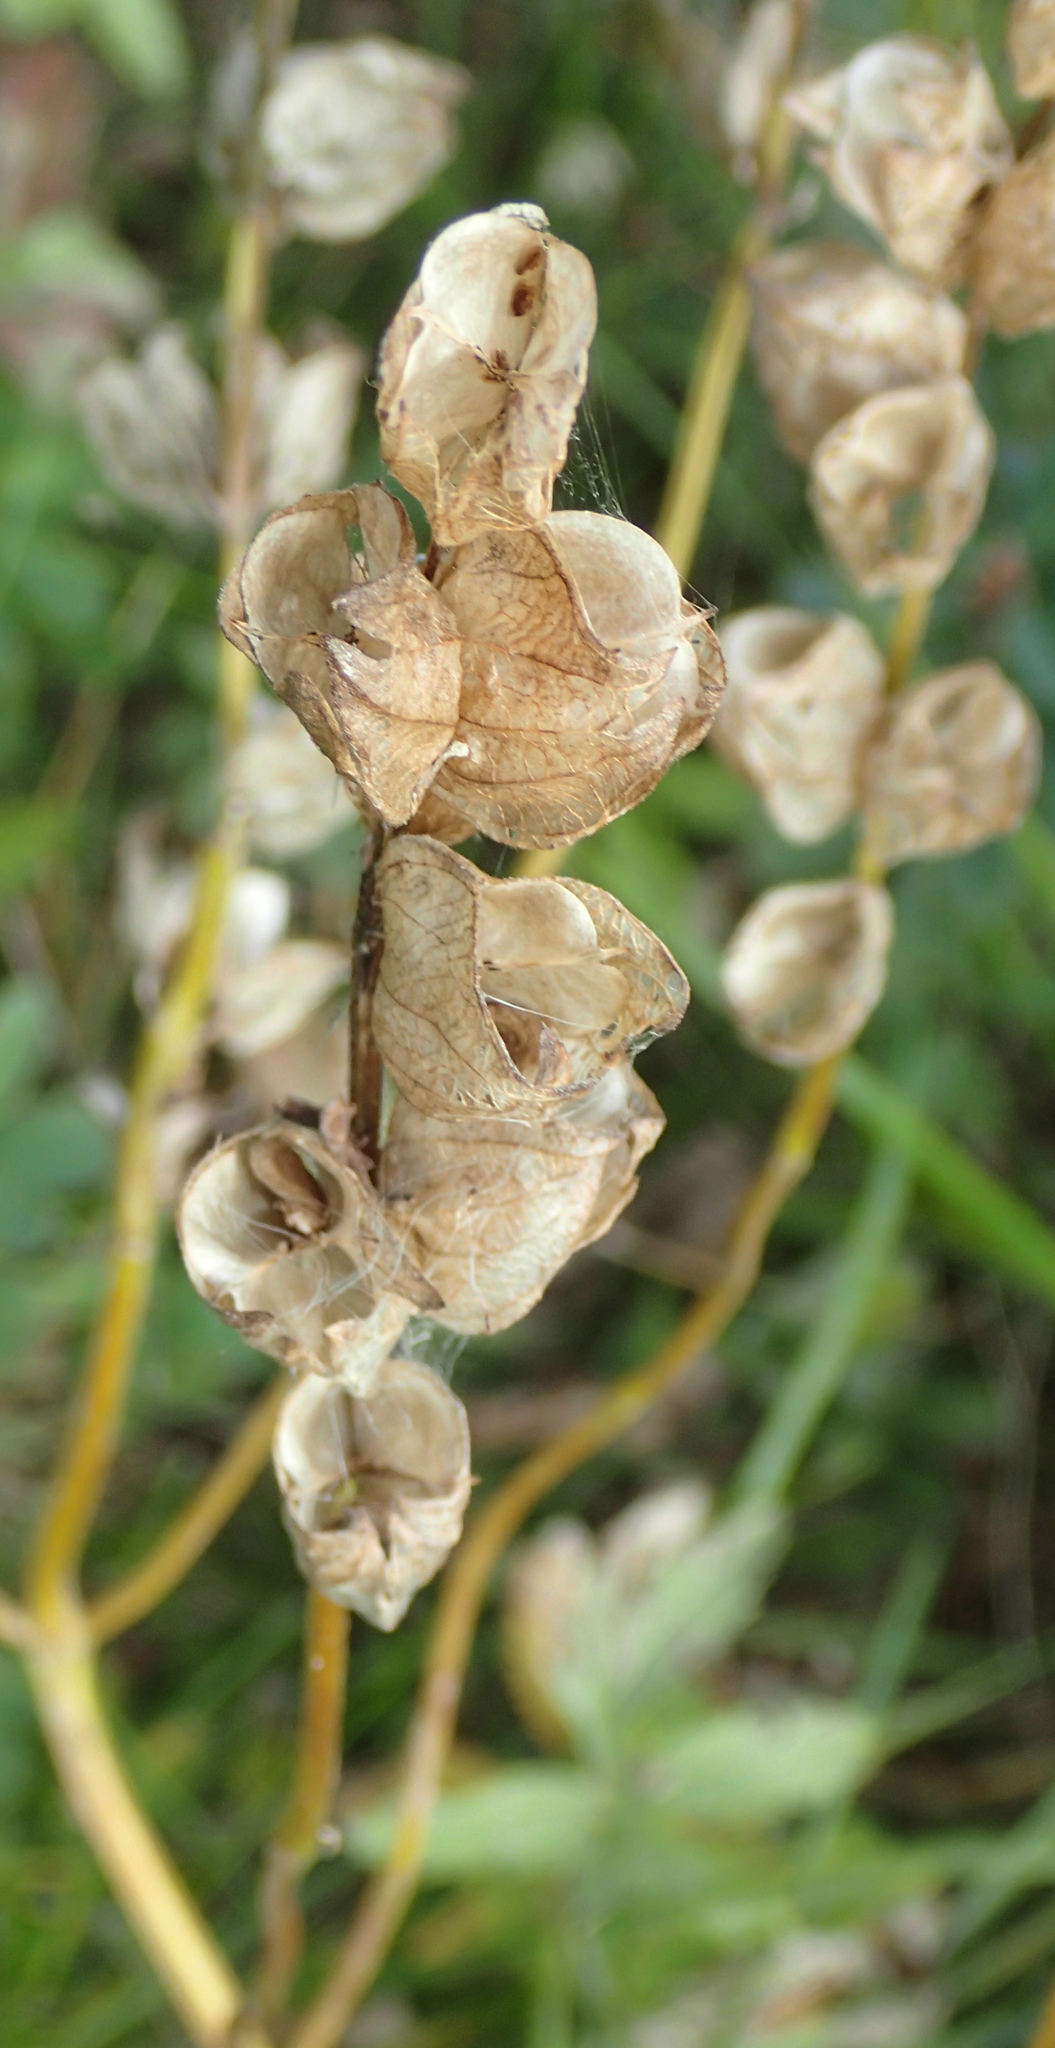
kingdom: Plantae
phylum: Tracheophyta
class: Magnoliopsida
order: Lamiales
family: Orobanchaceae
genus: Rhinanthus
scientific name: Rhinanthus minor
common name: Yellow-rattle
